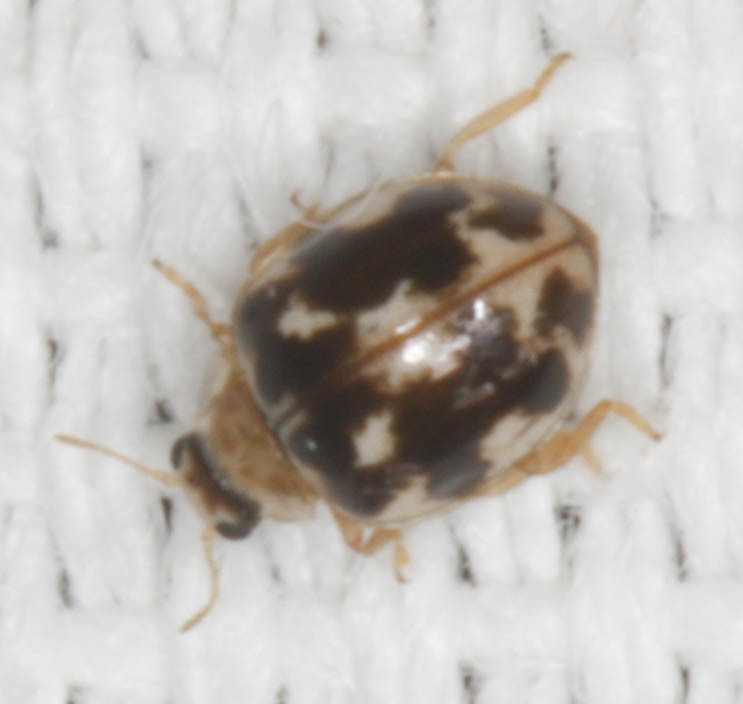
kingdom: Animalia
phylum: Arthropoda
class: Insecta
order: Coleoptera
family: Coccinellidae
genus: Psyllobora
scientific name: Psyllobora vigintimaculata
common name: Ladybird beetle
